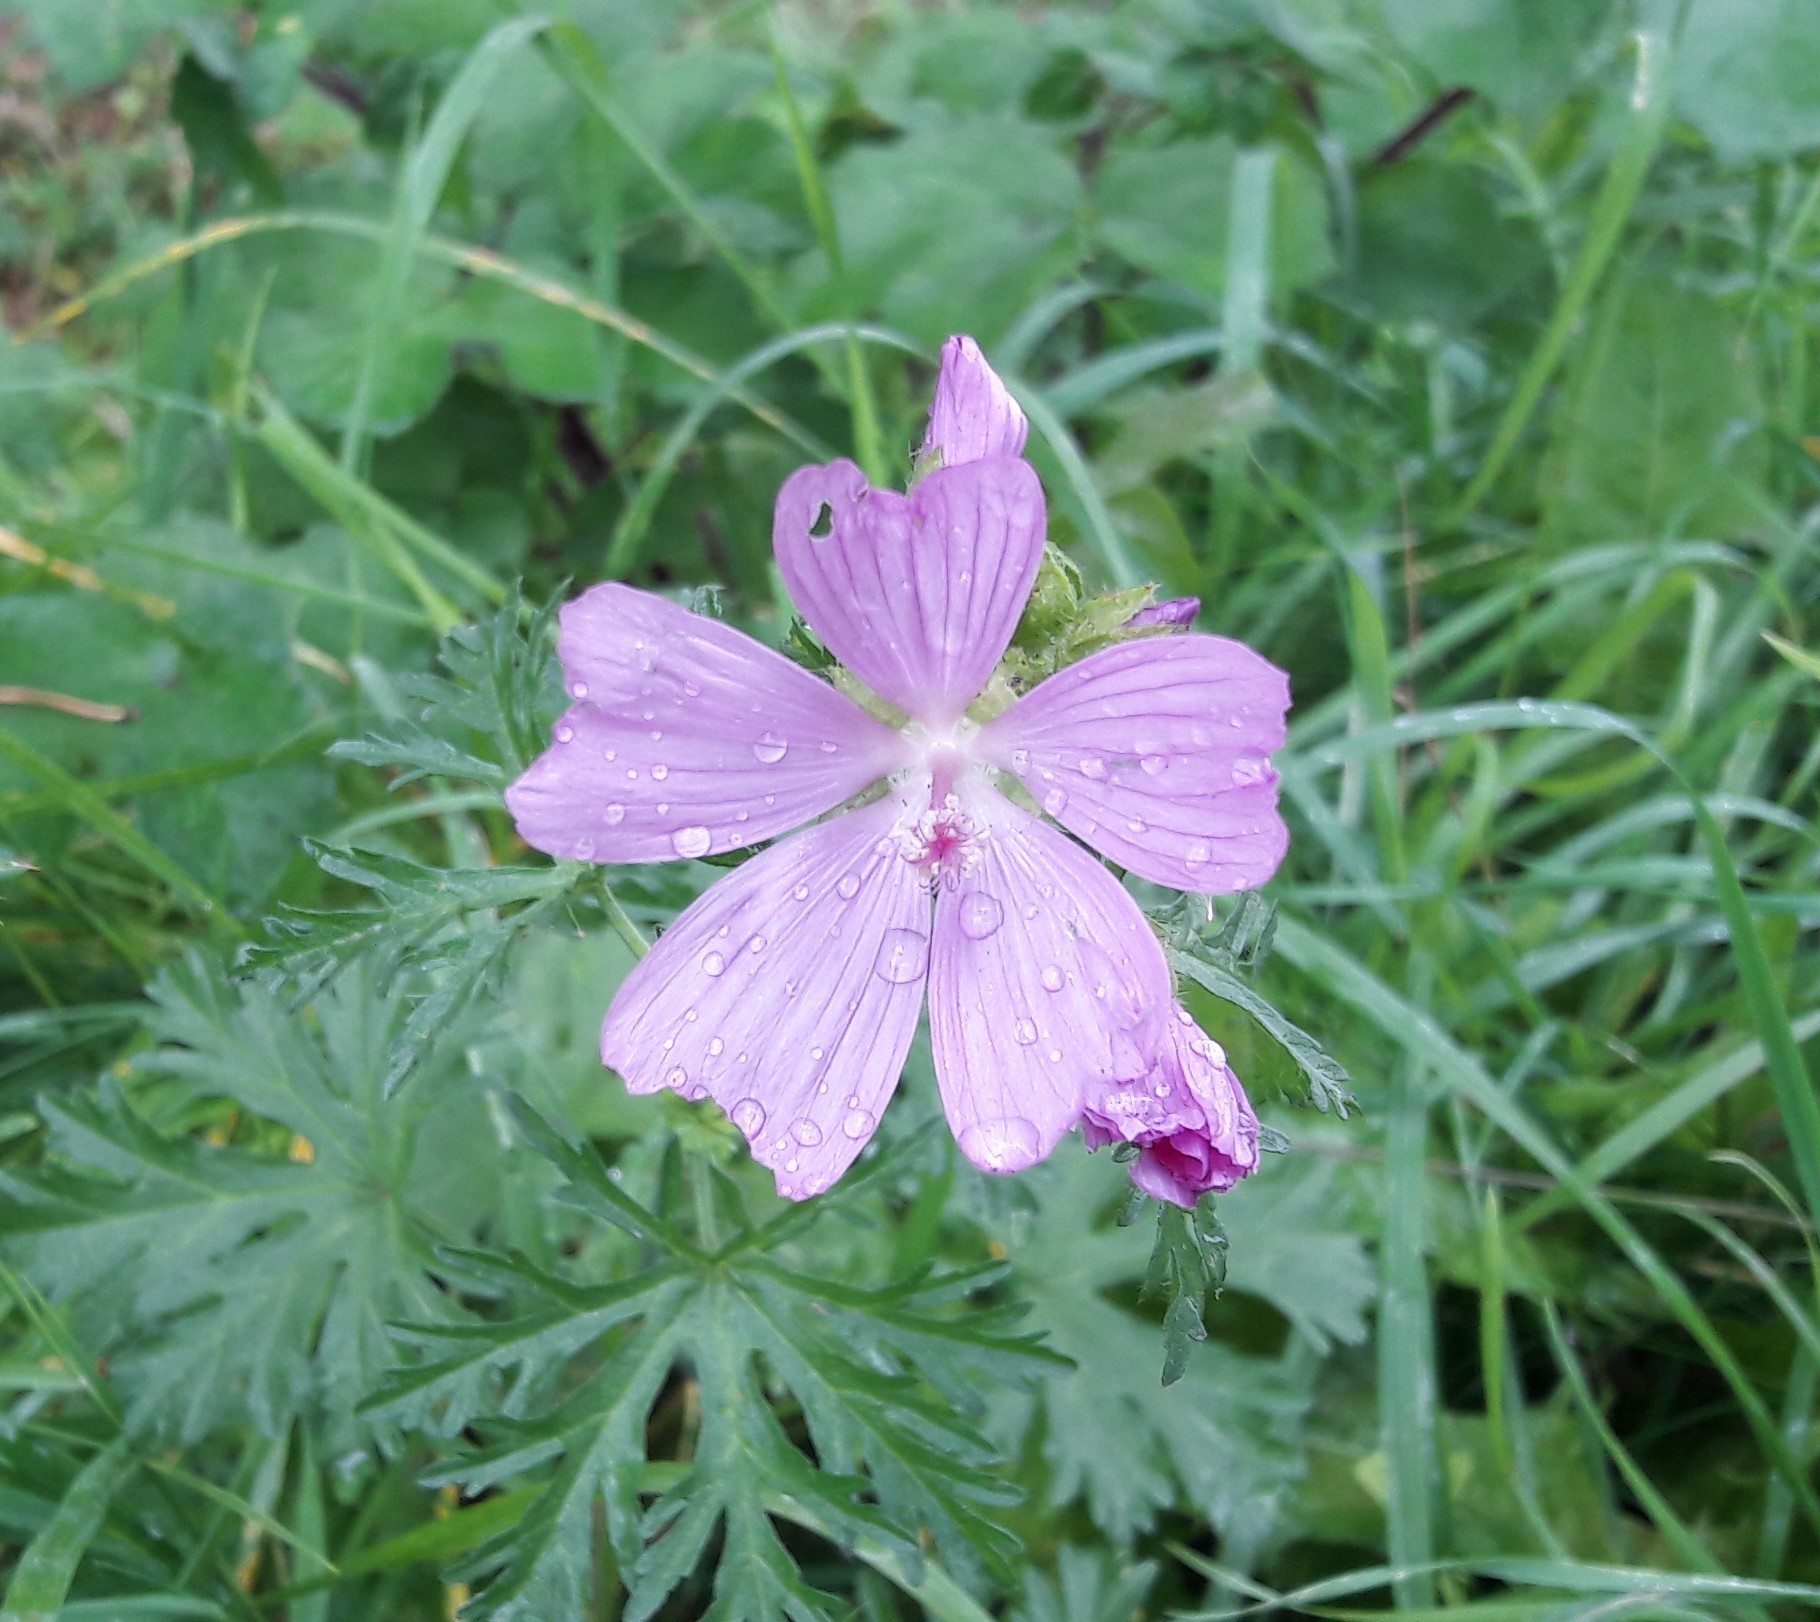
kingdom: Plantae
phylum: Tracheophyta
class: Magnoliopsida
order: Malvales
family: Malvaceae
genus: Malva
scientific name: Malva moschata
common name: Musk mallow
